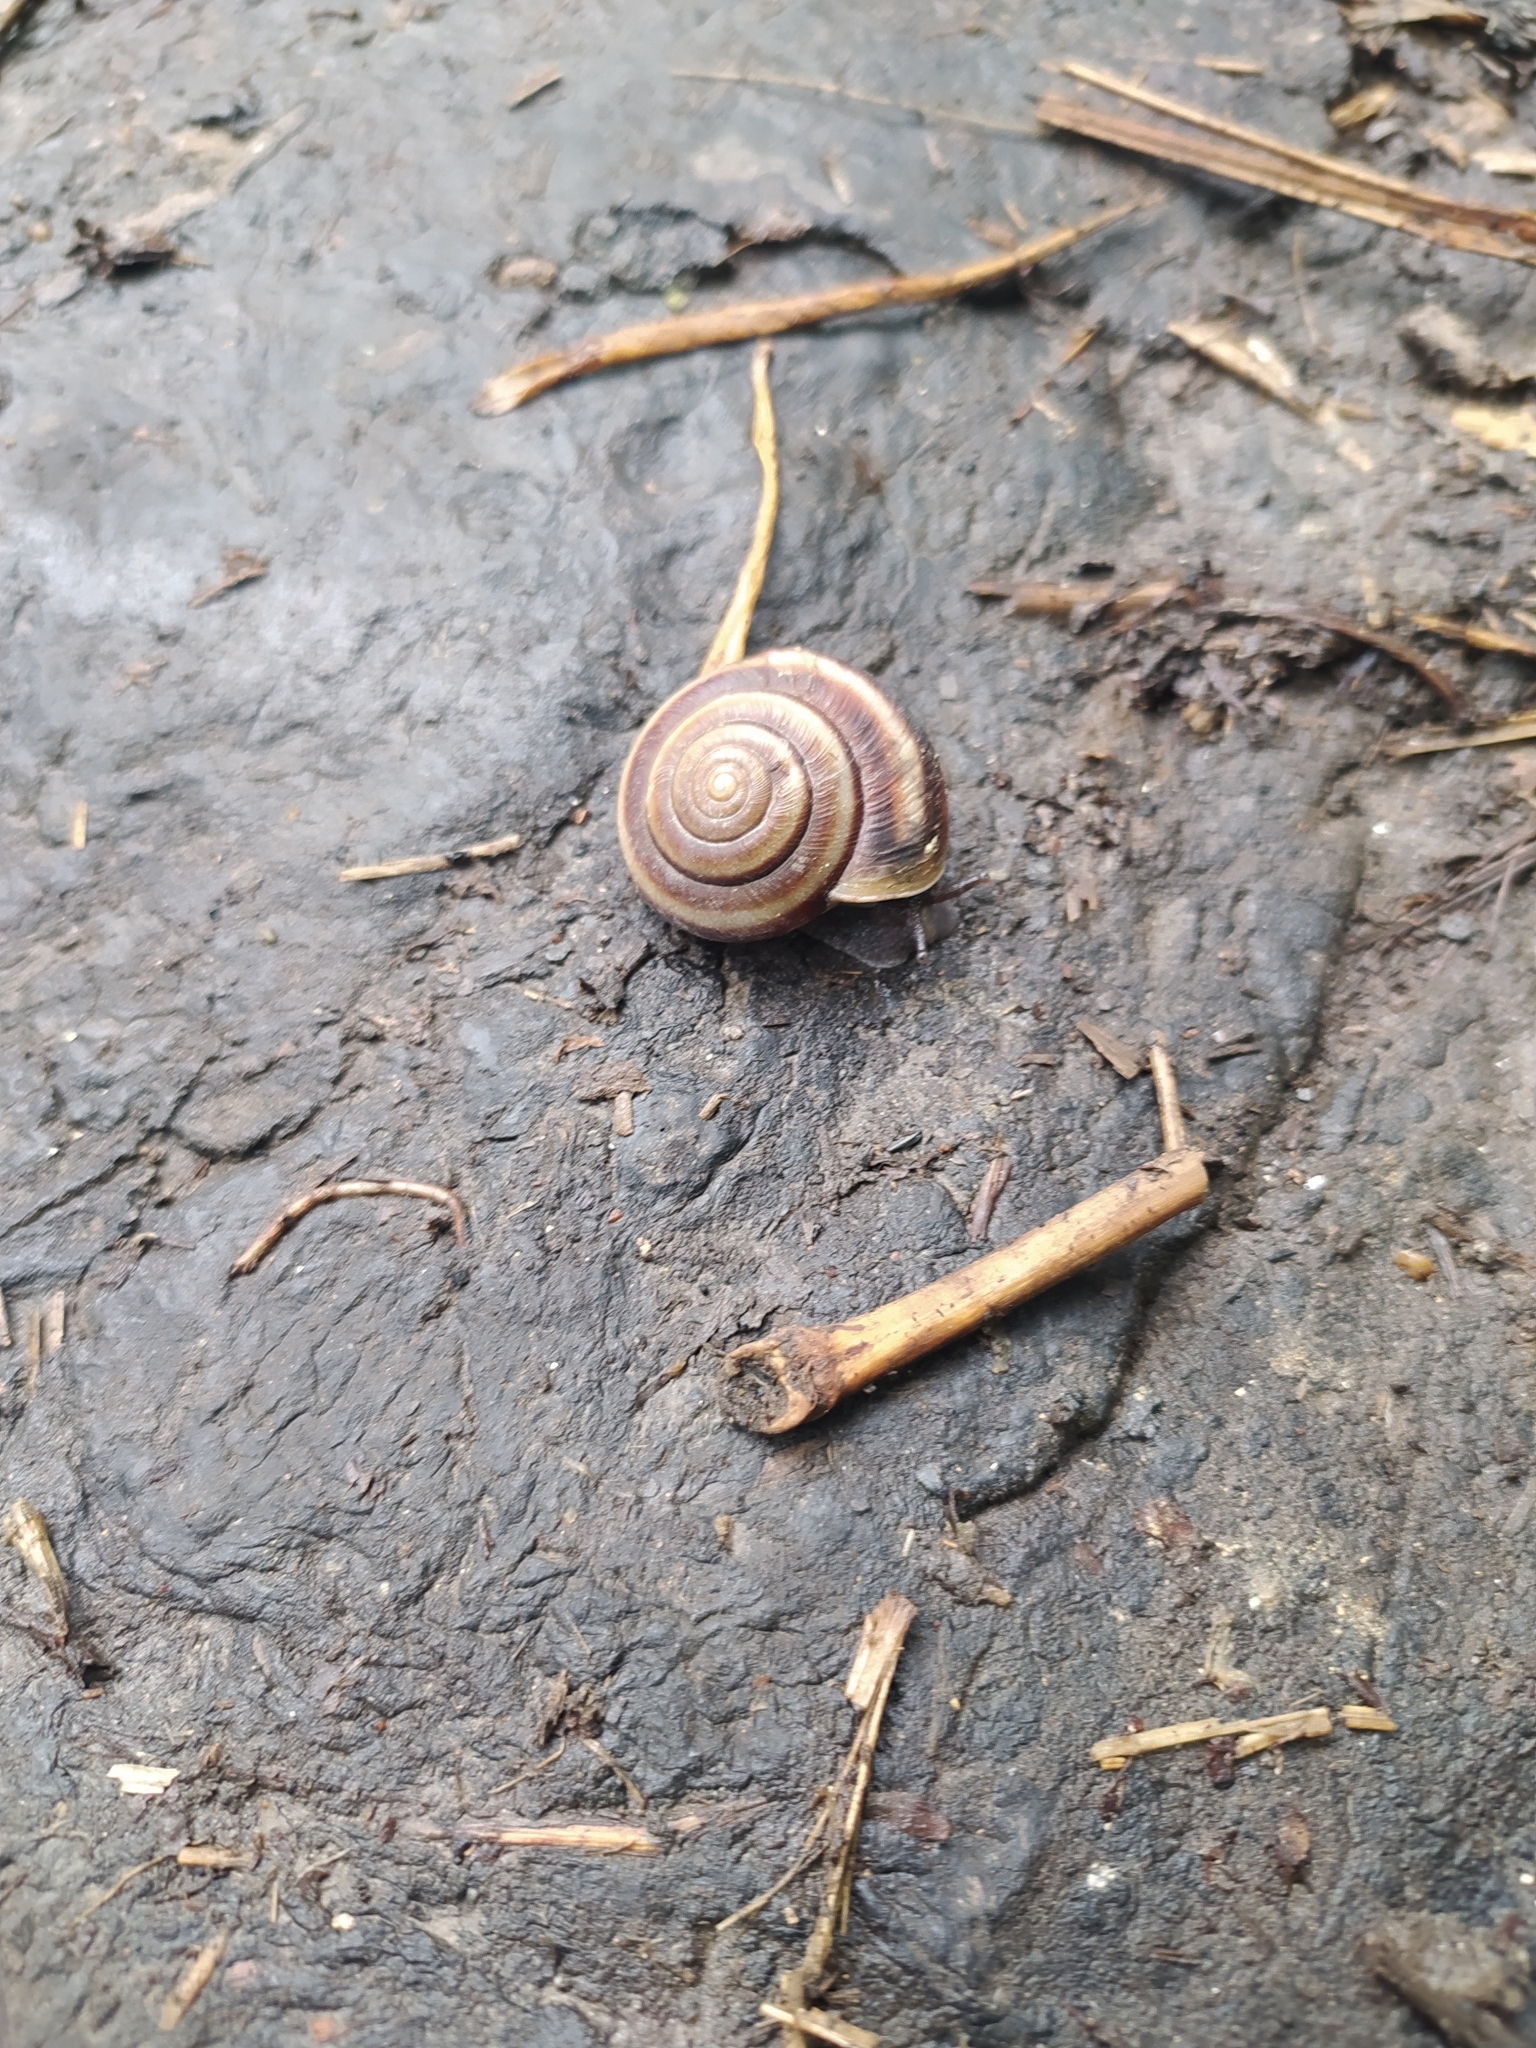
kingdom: Animalia
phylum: Mollusca
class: Gastropoda
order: Stylommatophora
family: Camaenidae
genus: Karaftohelix
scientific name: Karaftohelix maackii
